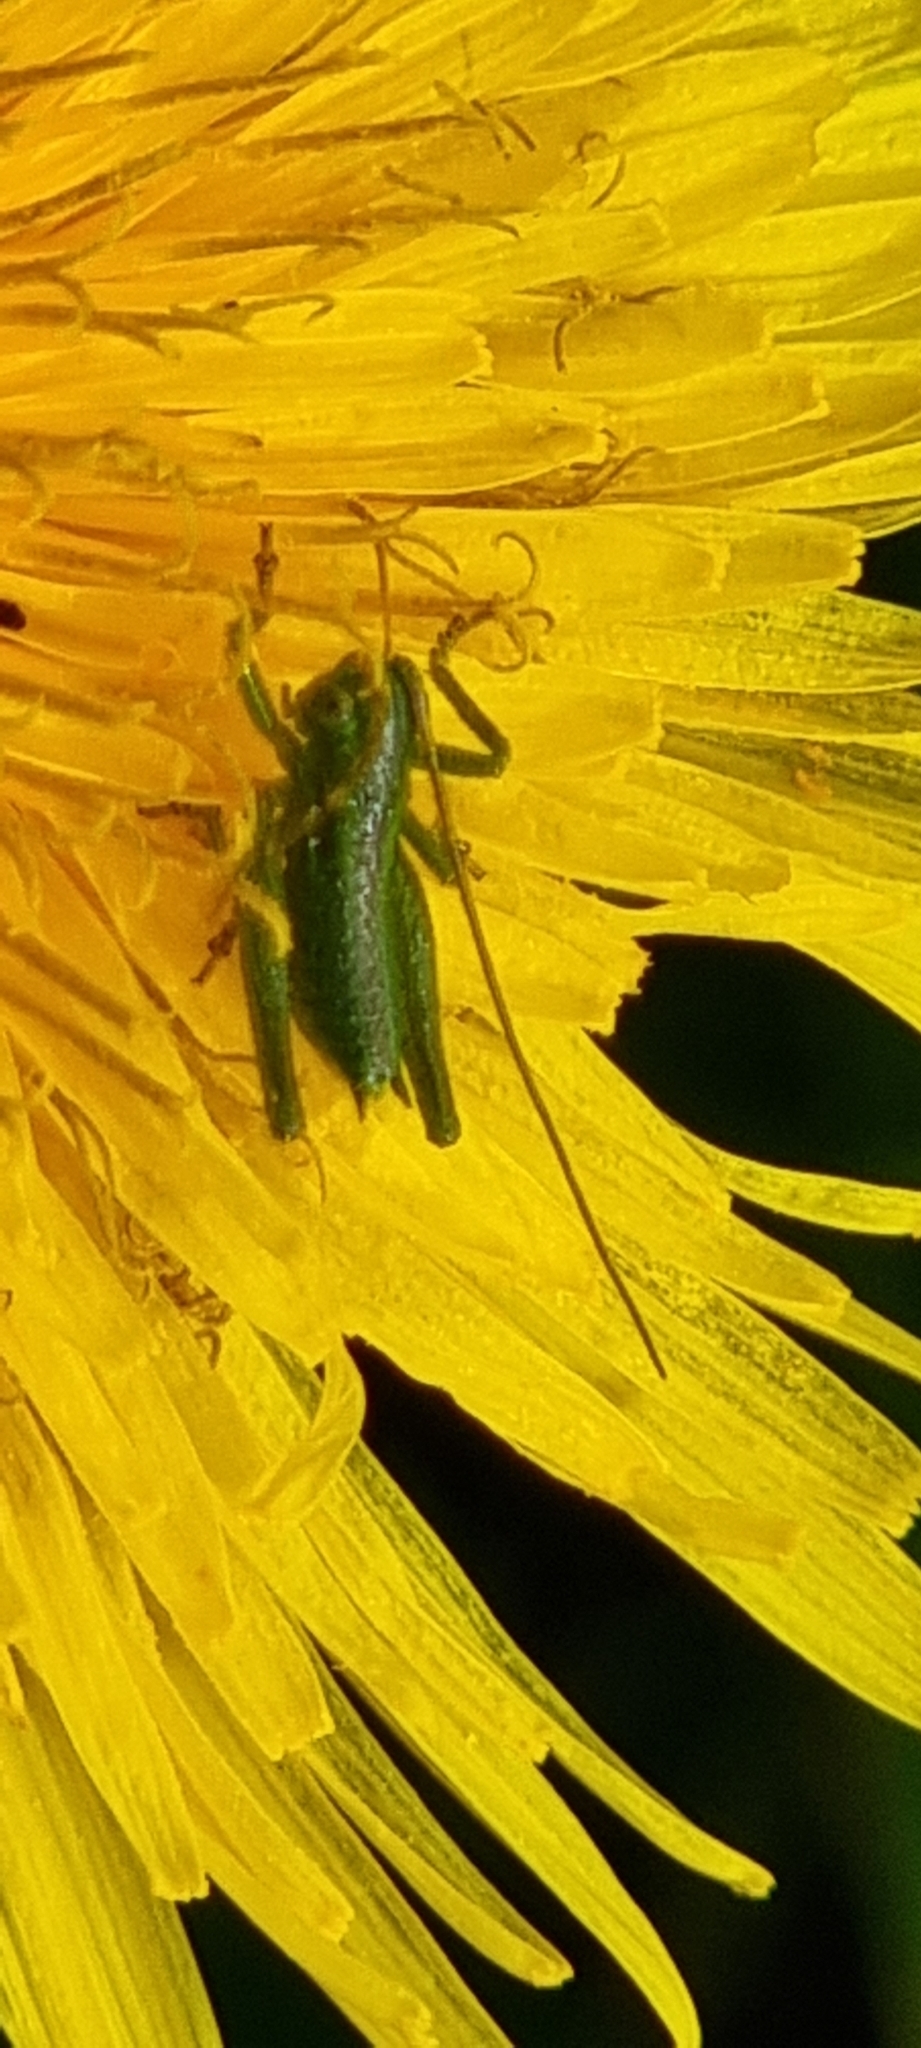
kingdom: Animalia
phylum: Arthropoda
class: Insecta
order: Orthoptera
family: Tettigoniidae
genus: Tettigonia
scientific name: Tettigonia viridissima
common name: Great green bush-cricket
